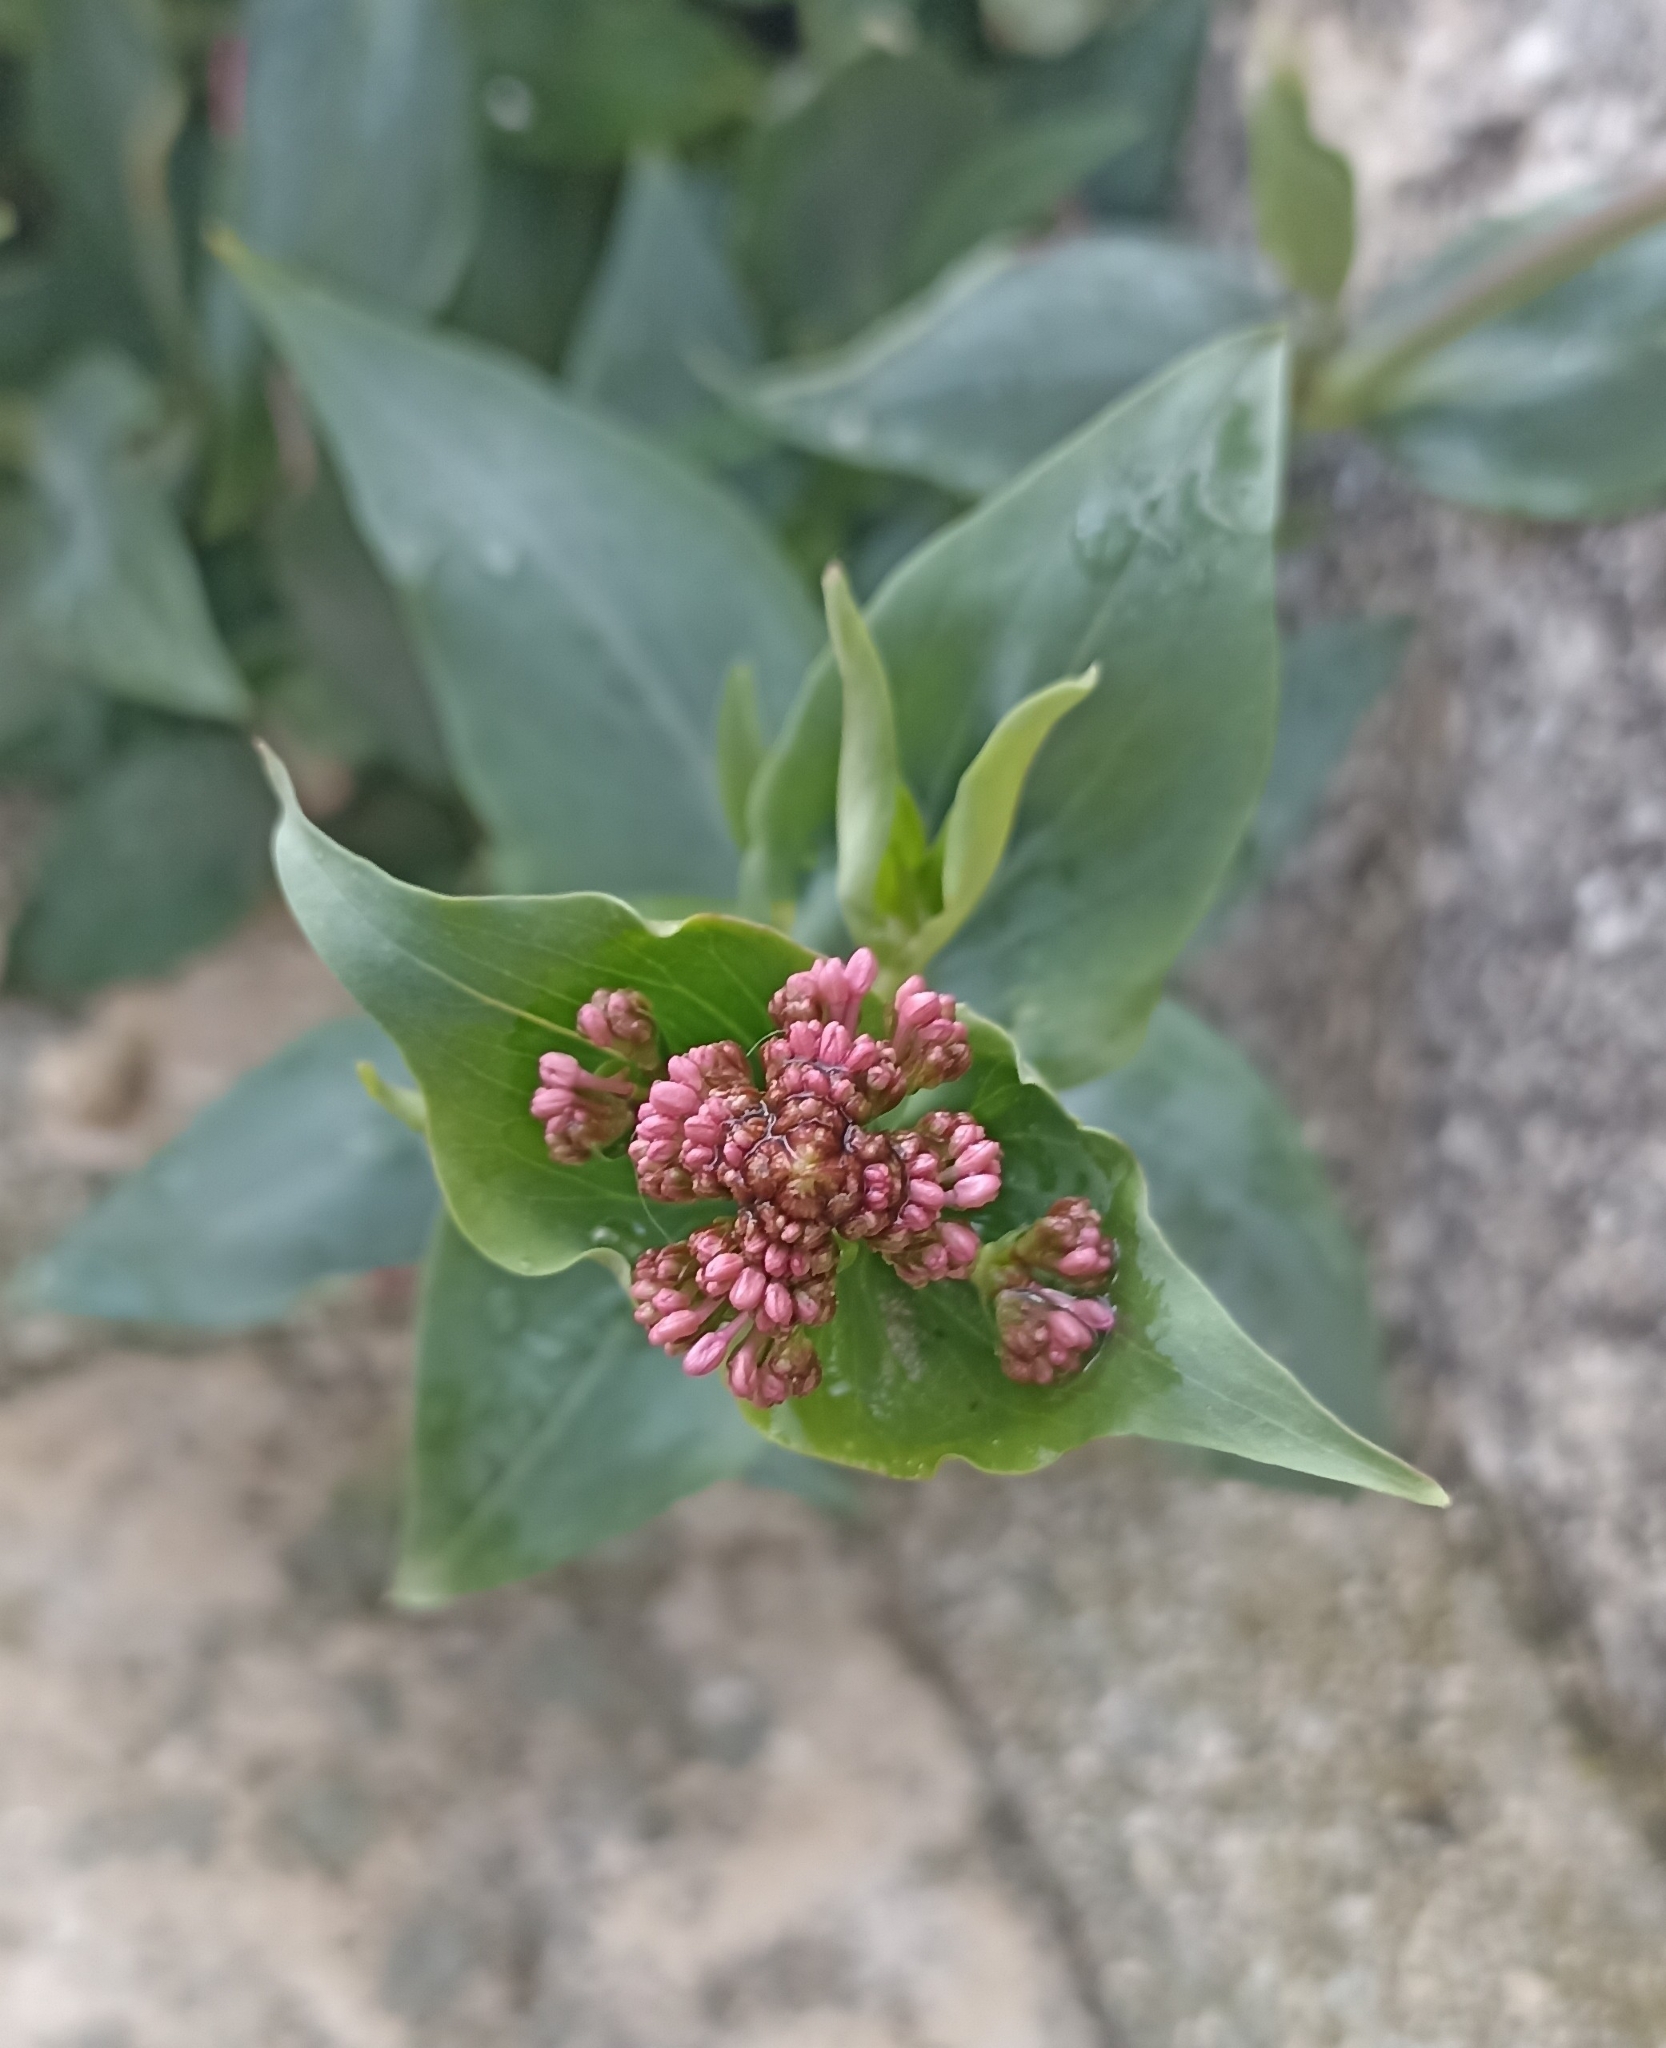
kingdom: Plantae
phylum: Tracheophyta
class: Magnoliopsida
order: Dipsacales
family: Caprifoliaceae
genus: Centranthus
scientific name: Centranthus ruber
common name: Red valerian
